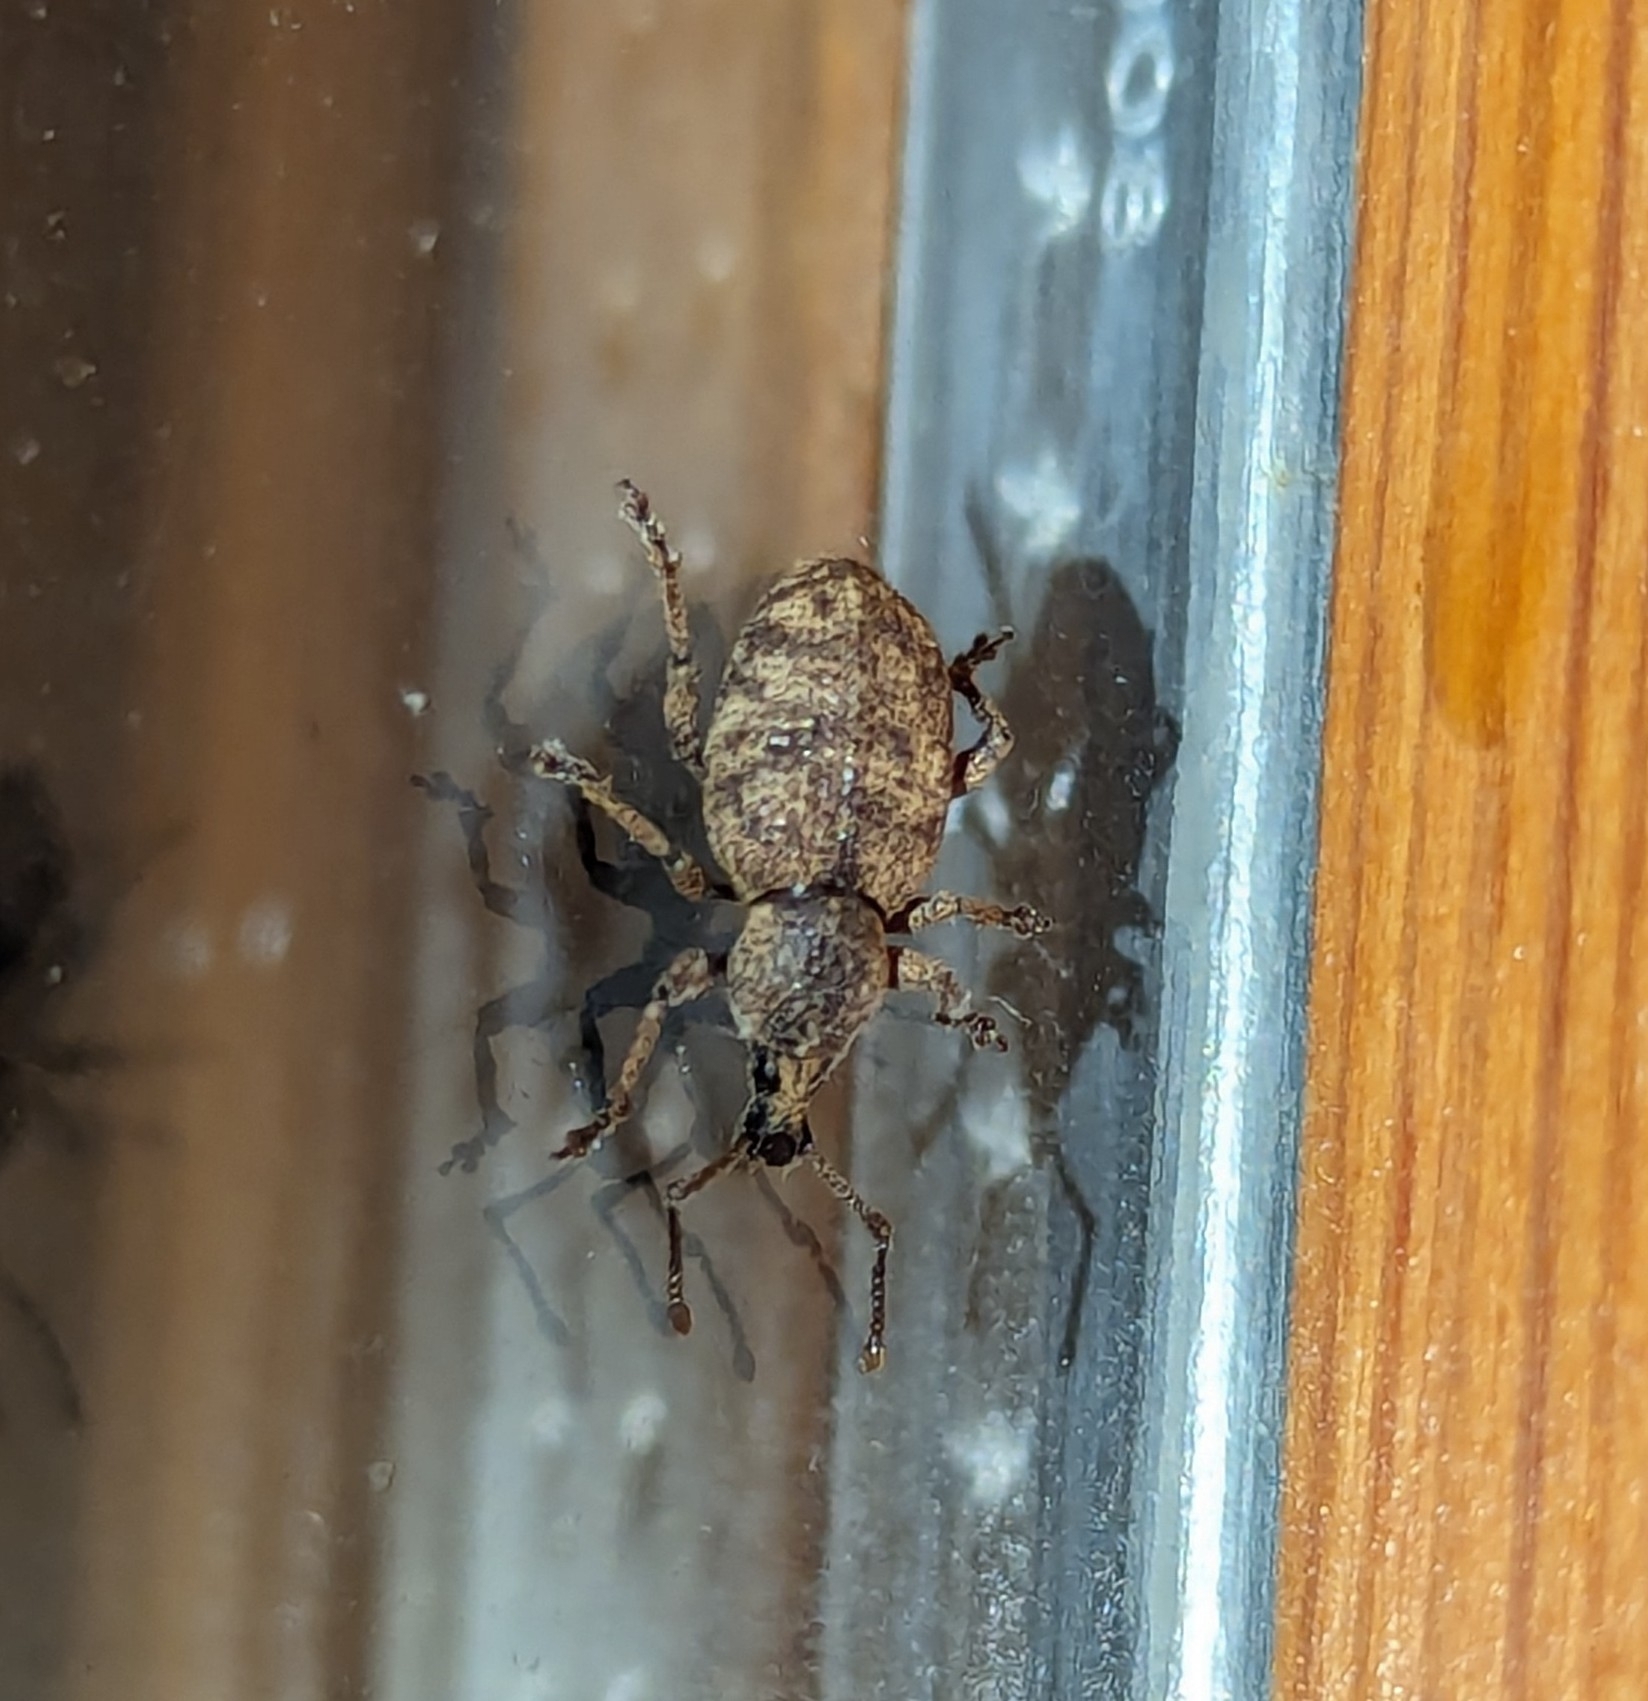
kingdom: Animalia
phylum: Arthropoda
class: Insecta
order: Coleoptera
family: Curculionidae
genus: Otiorhynchus
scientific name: Otiorhynchus singularis
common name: Clay-coloured weevil
